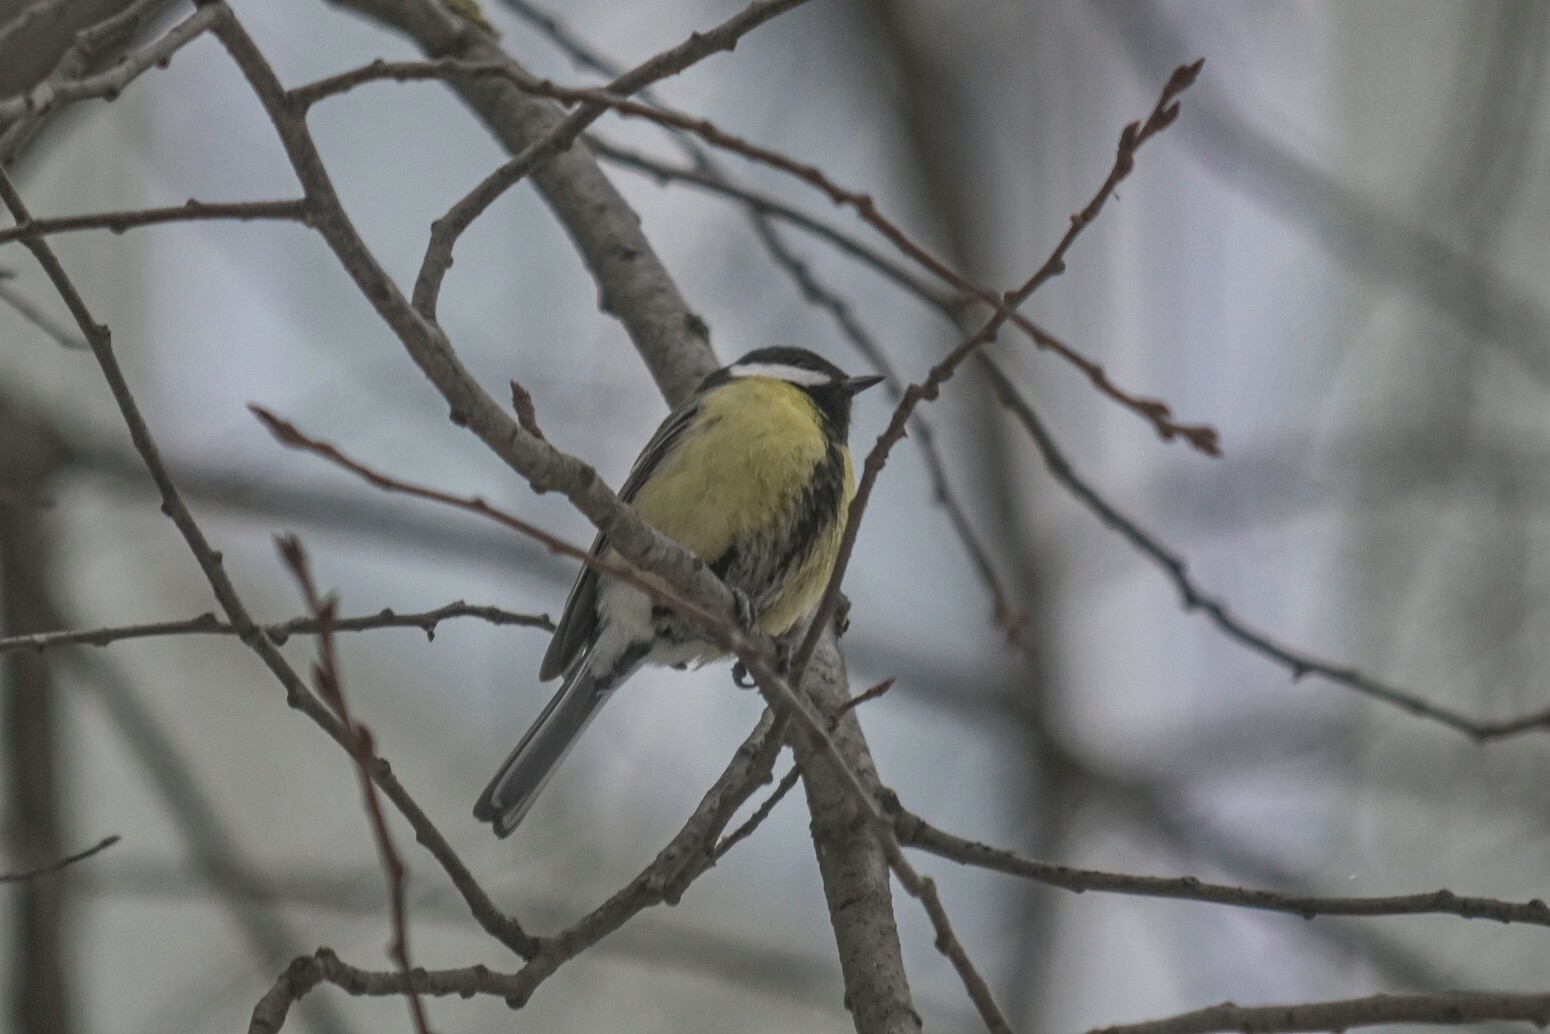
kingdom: Animalia
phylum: Chordata
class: Aves
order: Passeriformes
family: Paridae
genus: Parus
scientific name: Parus major
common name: Great tit
